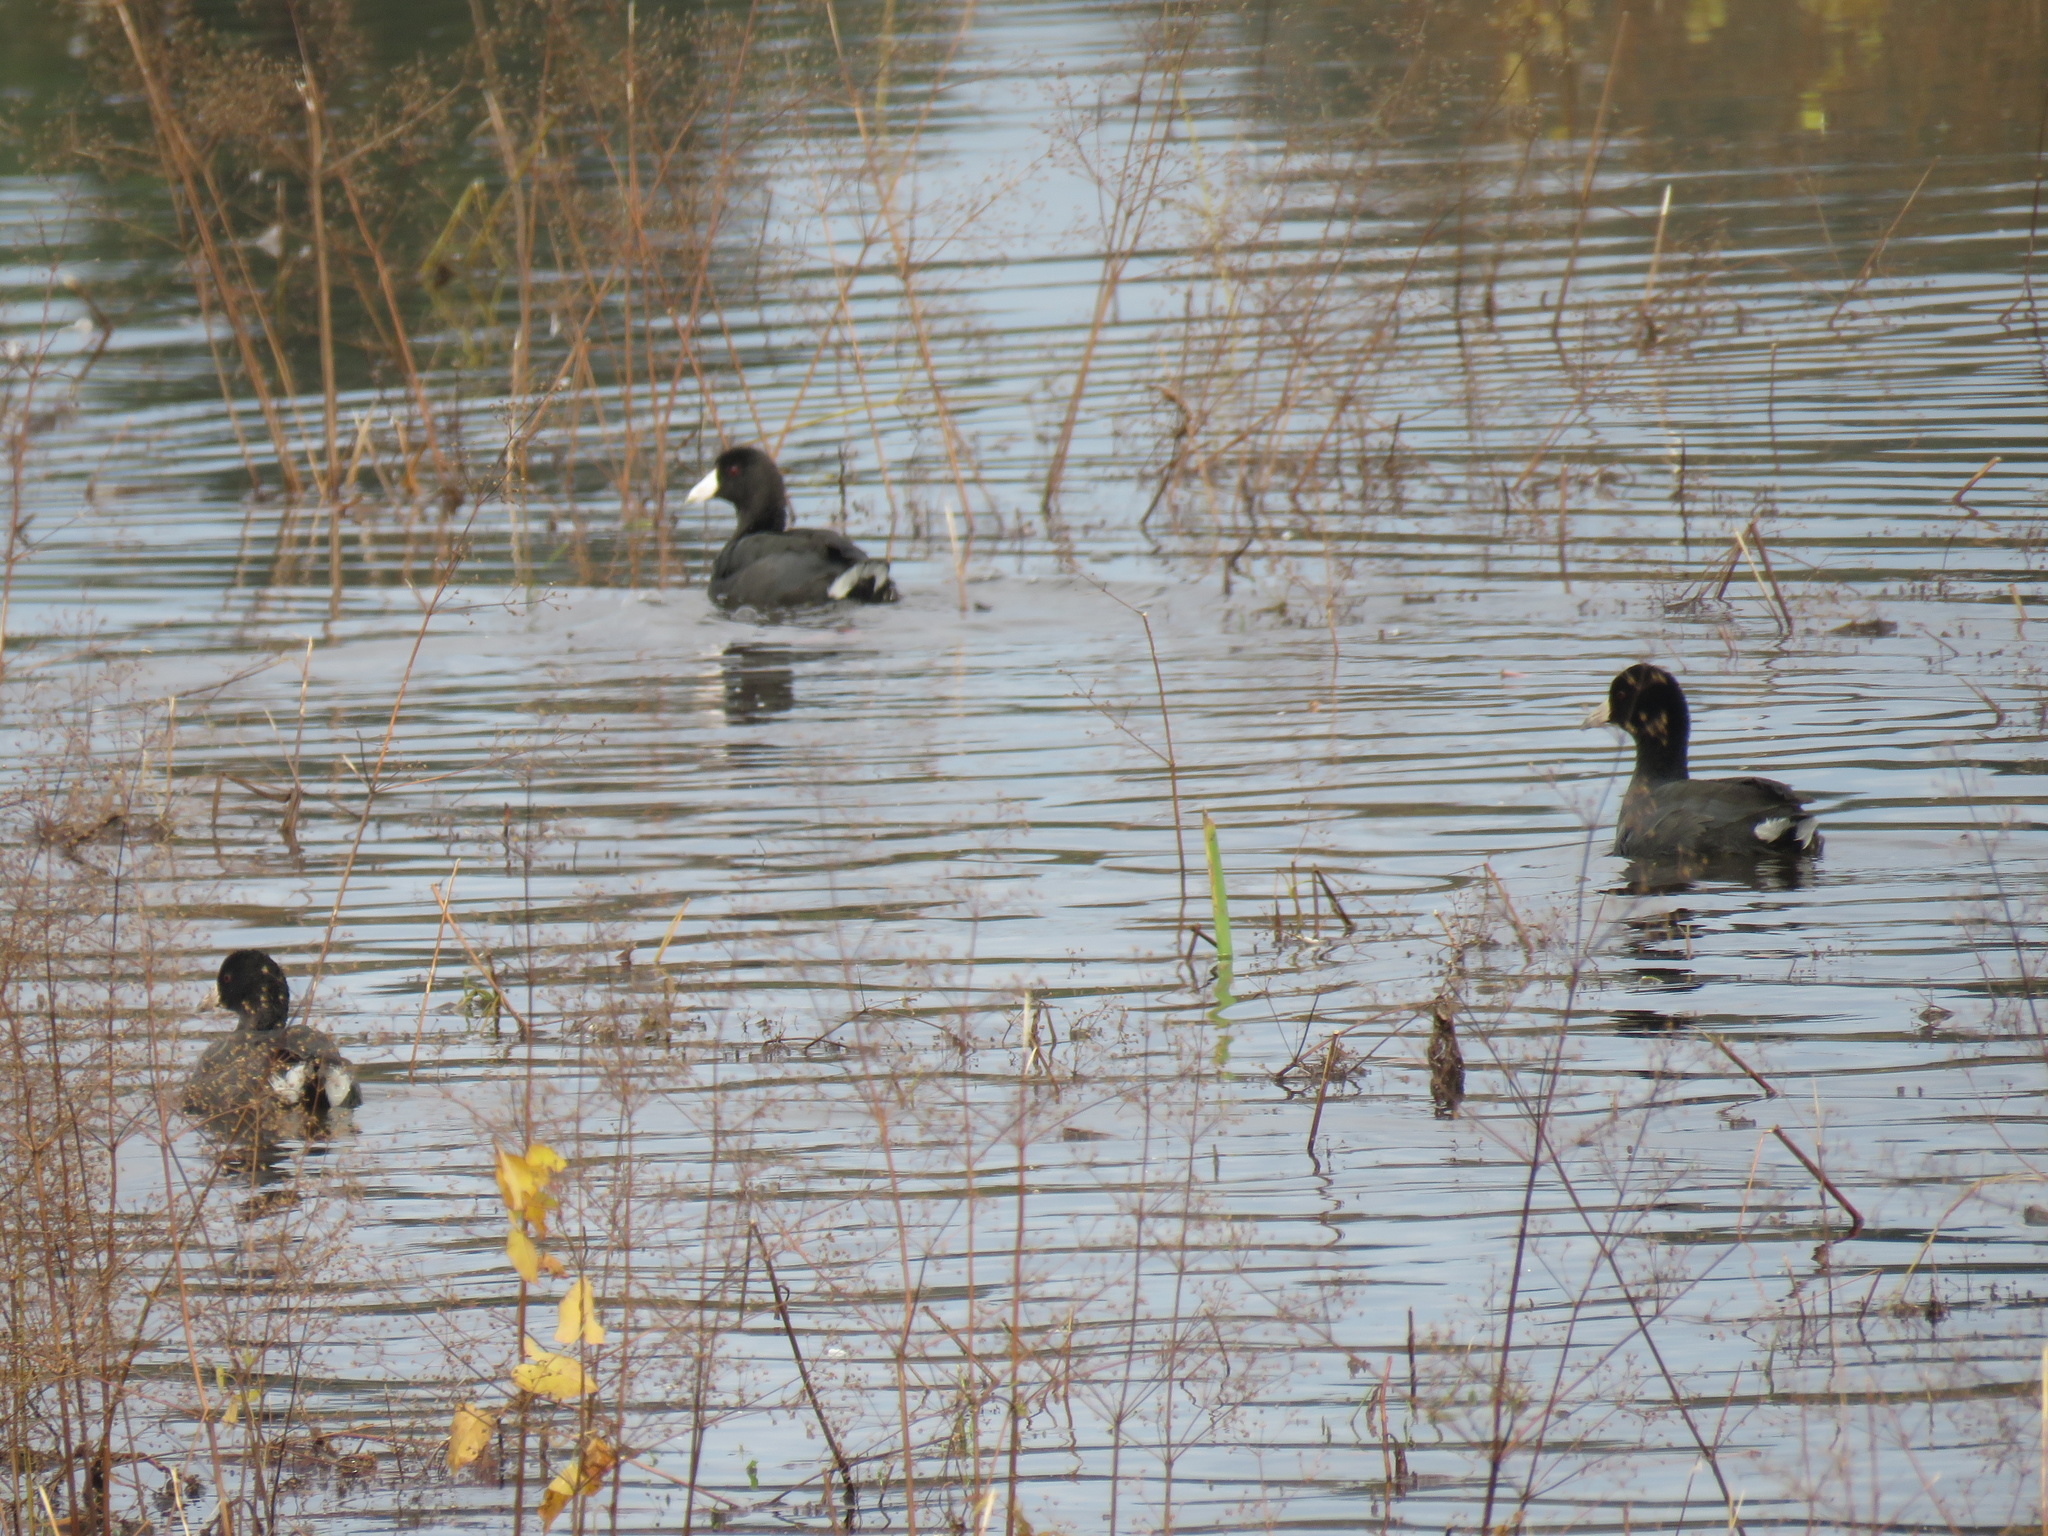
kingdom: Animalia
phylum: Chordata
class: Aves
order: Gruiformes
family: Rallidae
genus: Fulica
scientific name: Fulica americana
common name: American coot
